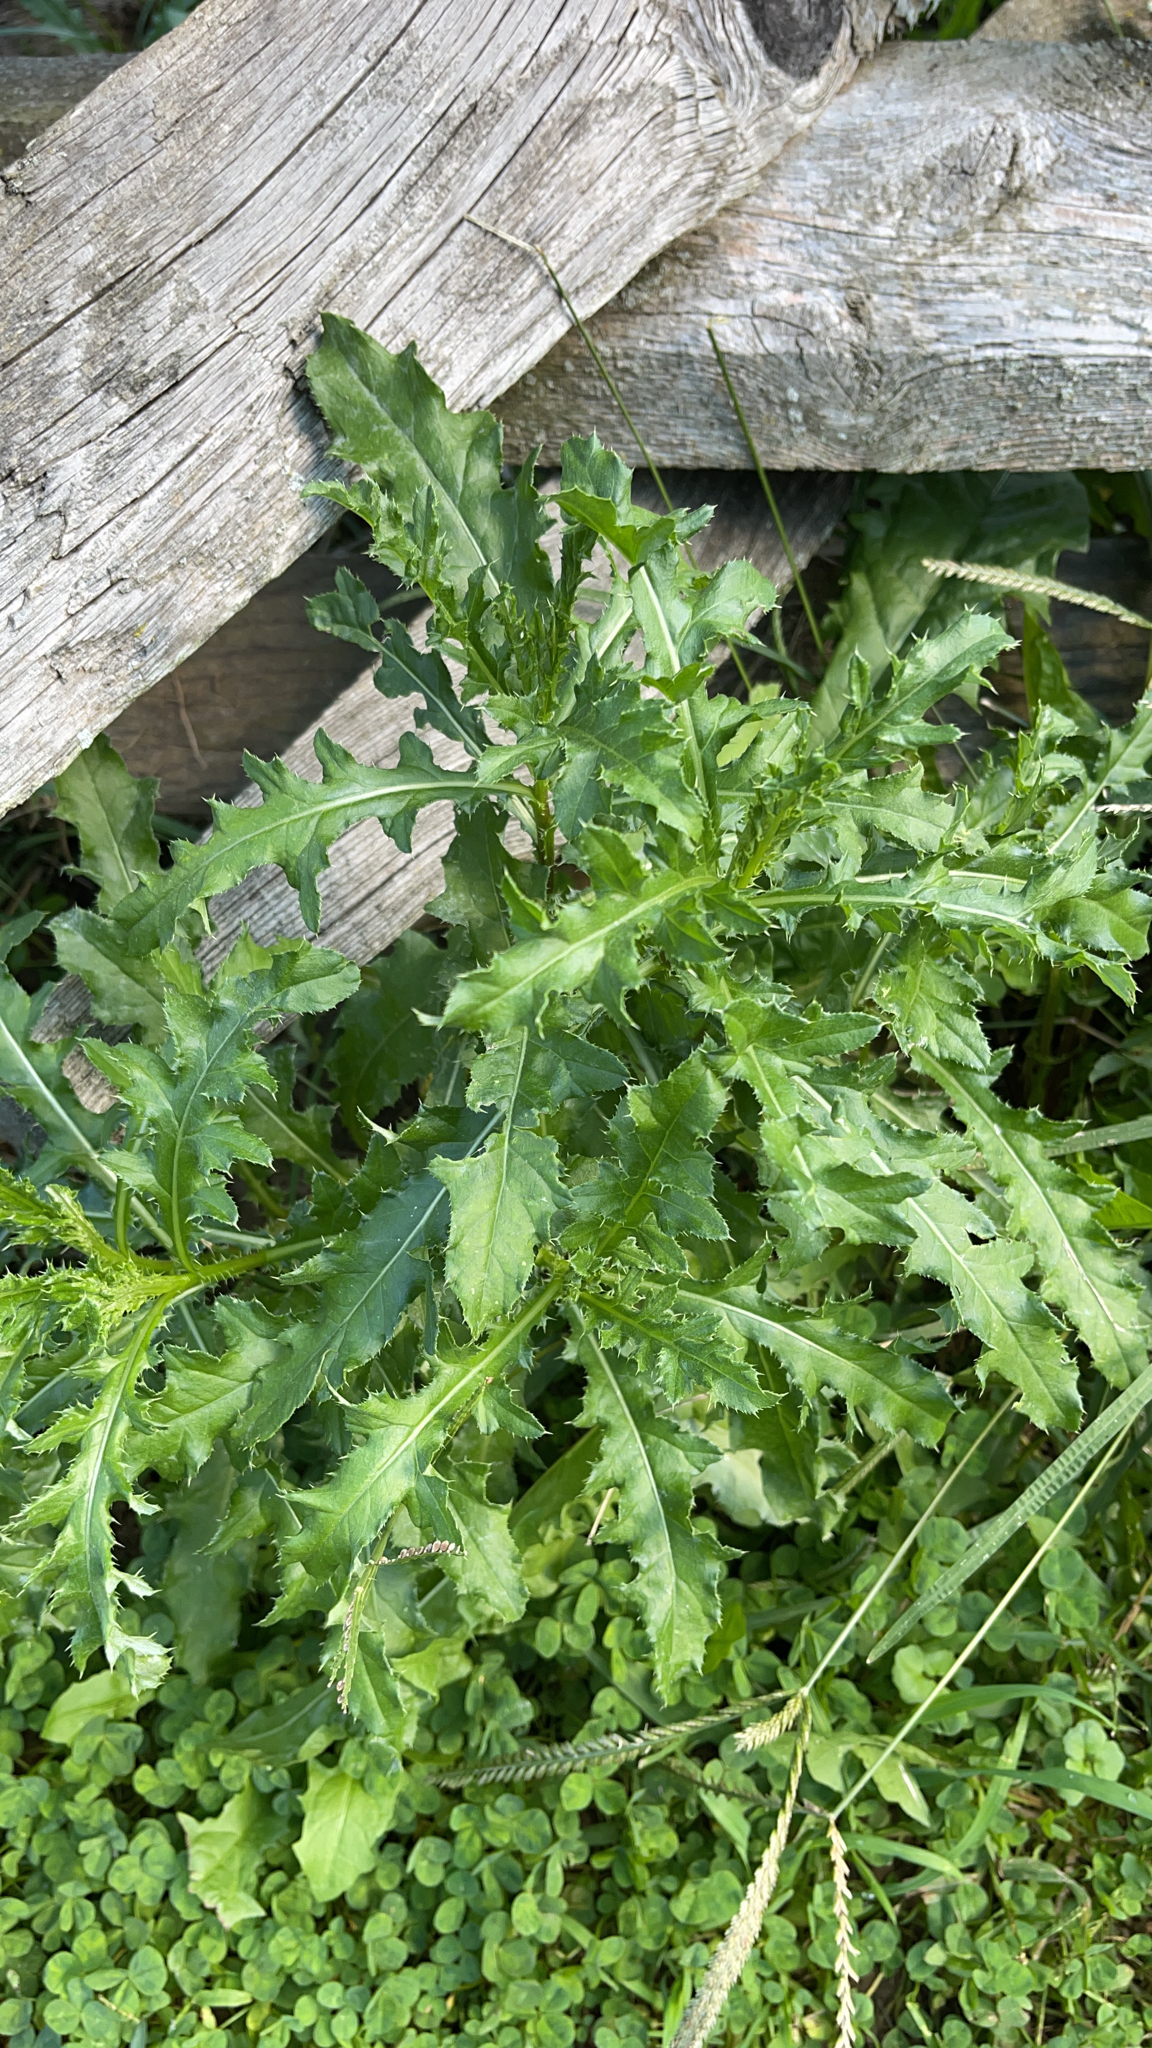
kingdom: Plantae
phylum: Tracheophyta
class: Magnoliopsida
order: Asterales
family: Asteraceae
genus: Cirsium
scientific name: Cirsium arvense
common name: Creeping thistle
